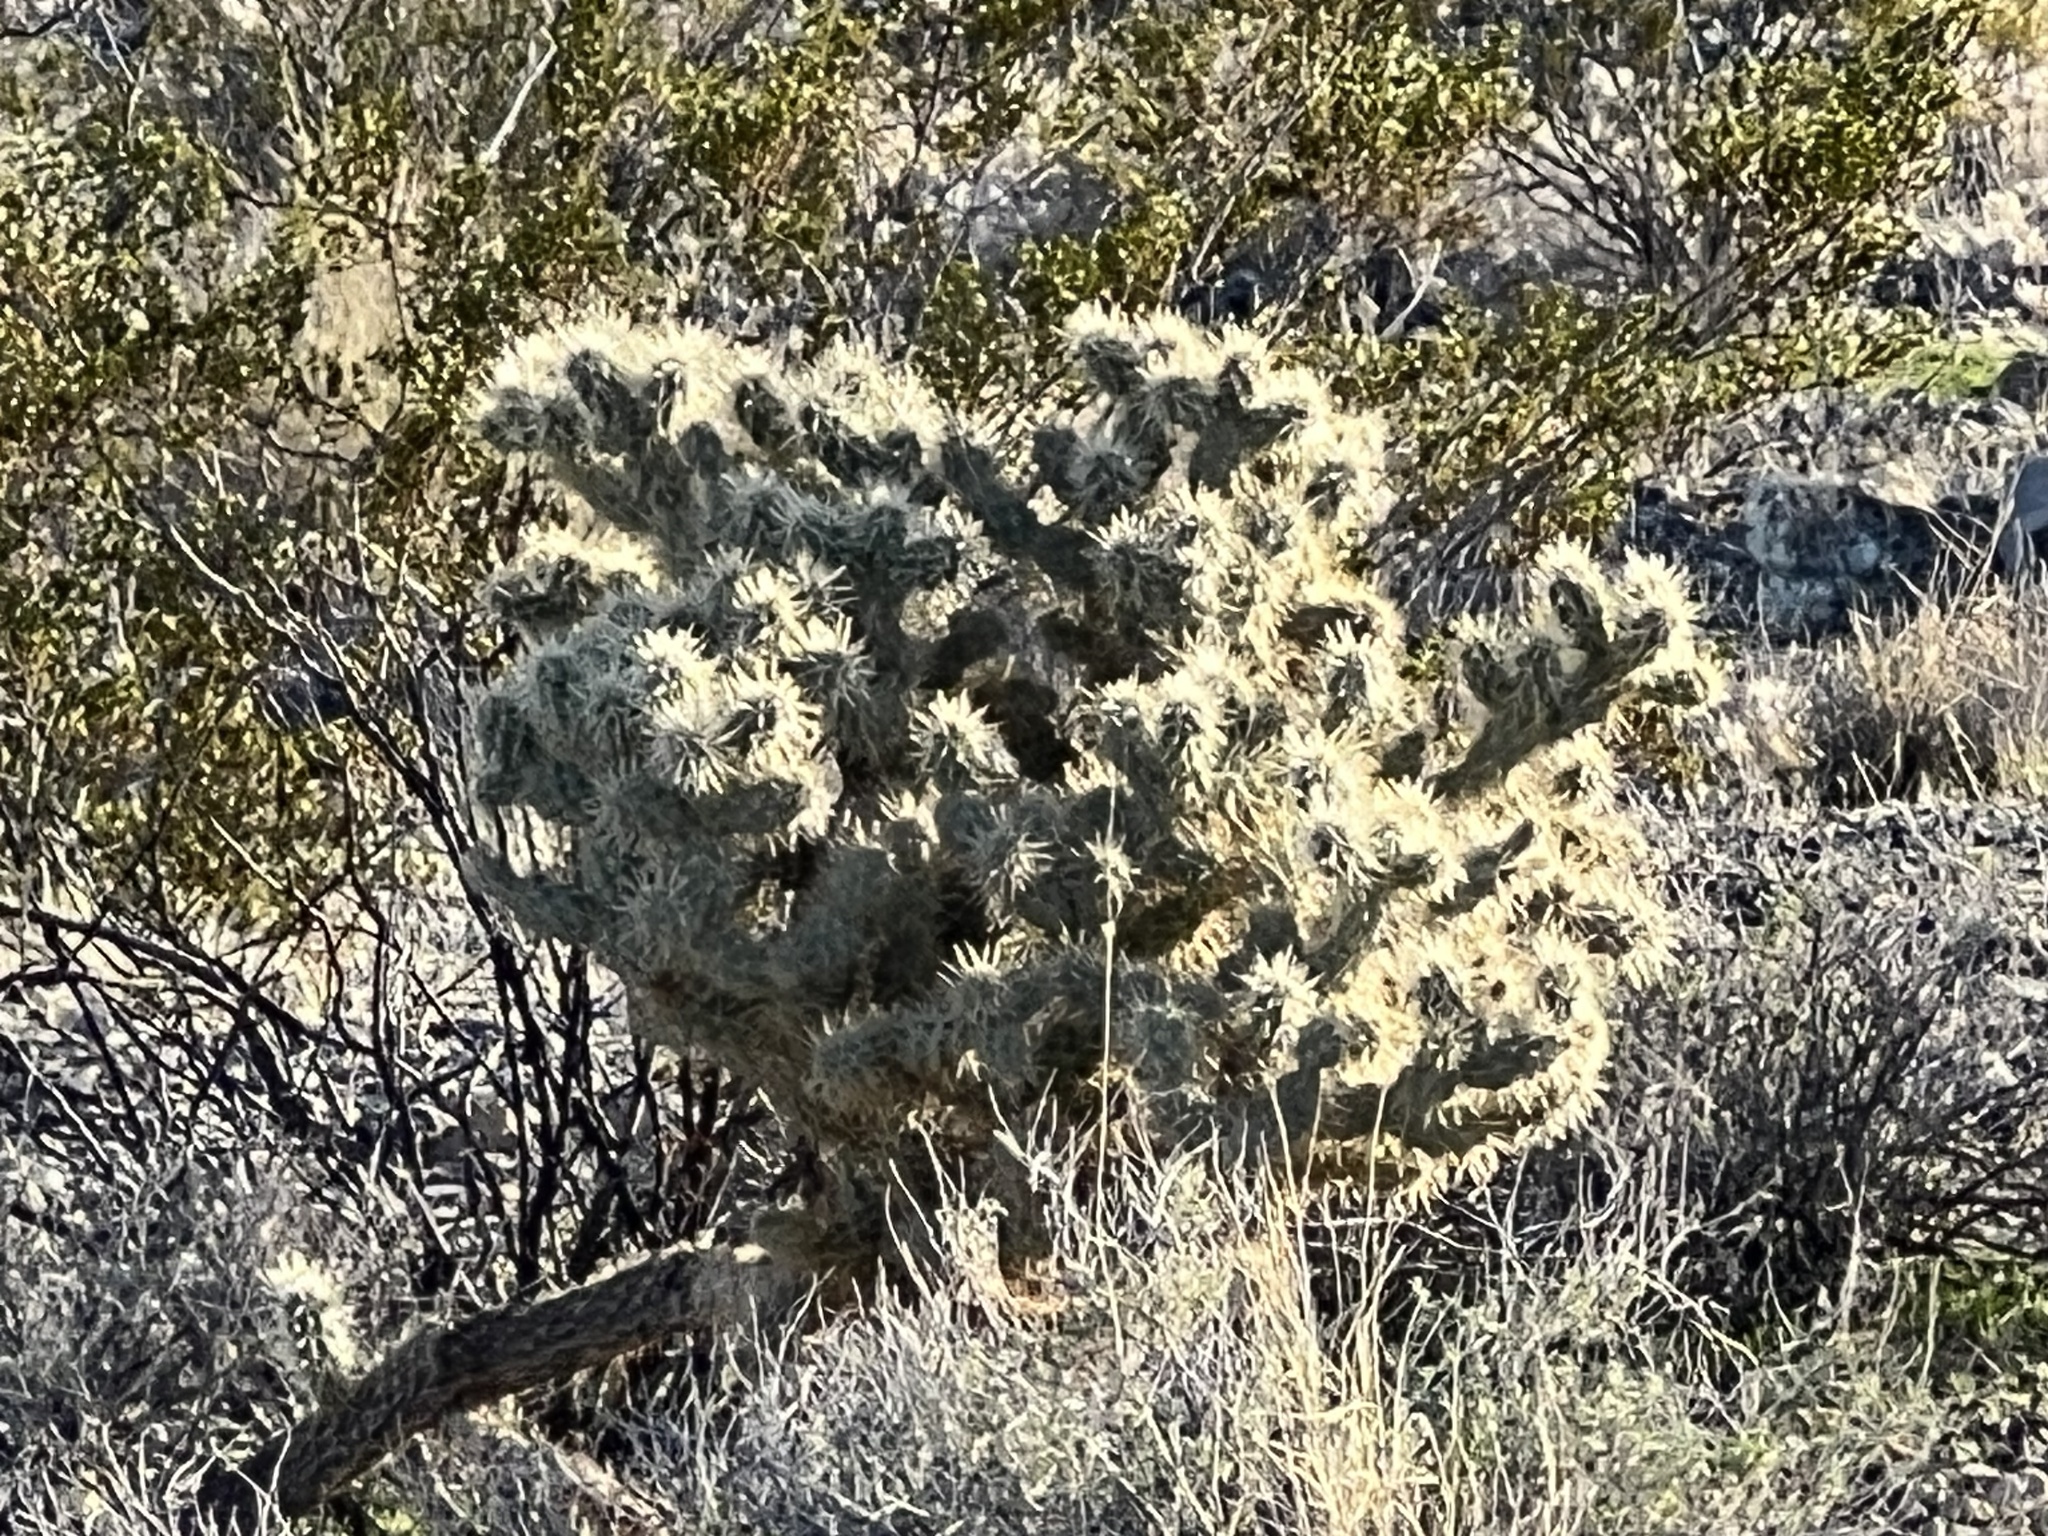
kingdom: Plantae
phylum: Tracheophyta
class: Magnoliopsida
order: Caryophyllales
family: Cactaceae
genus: Cylindropuntia
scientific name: Cylindropuntia echinocarpa
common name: Ground cholla
